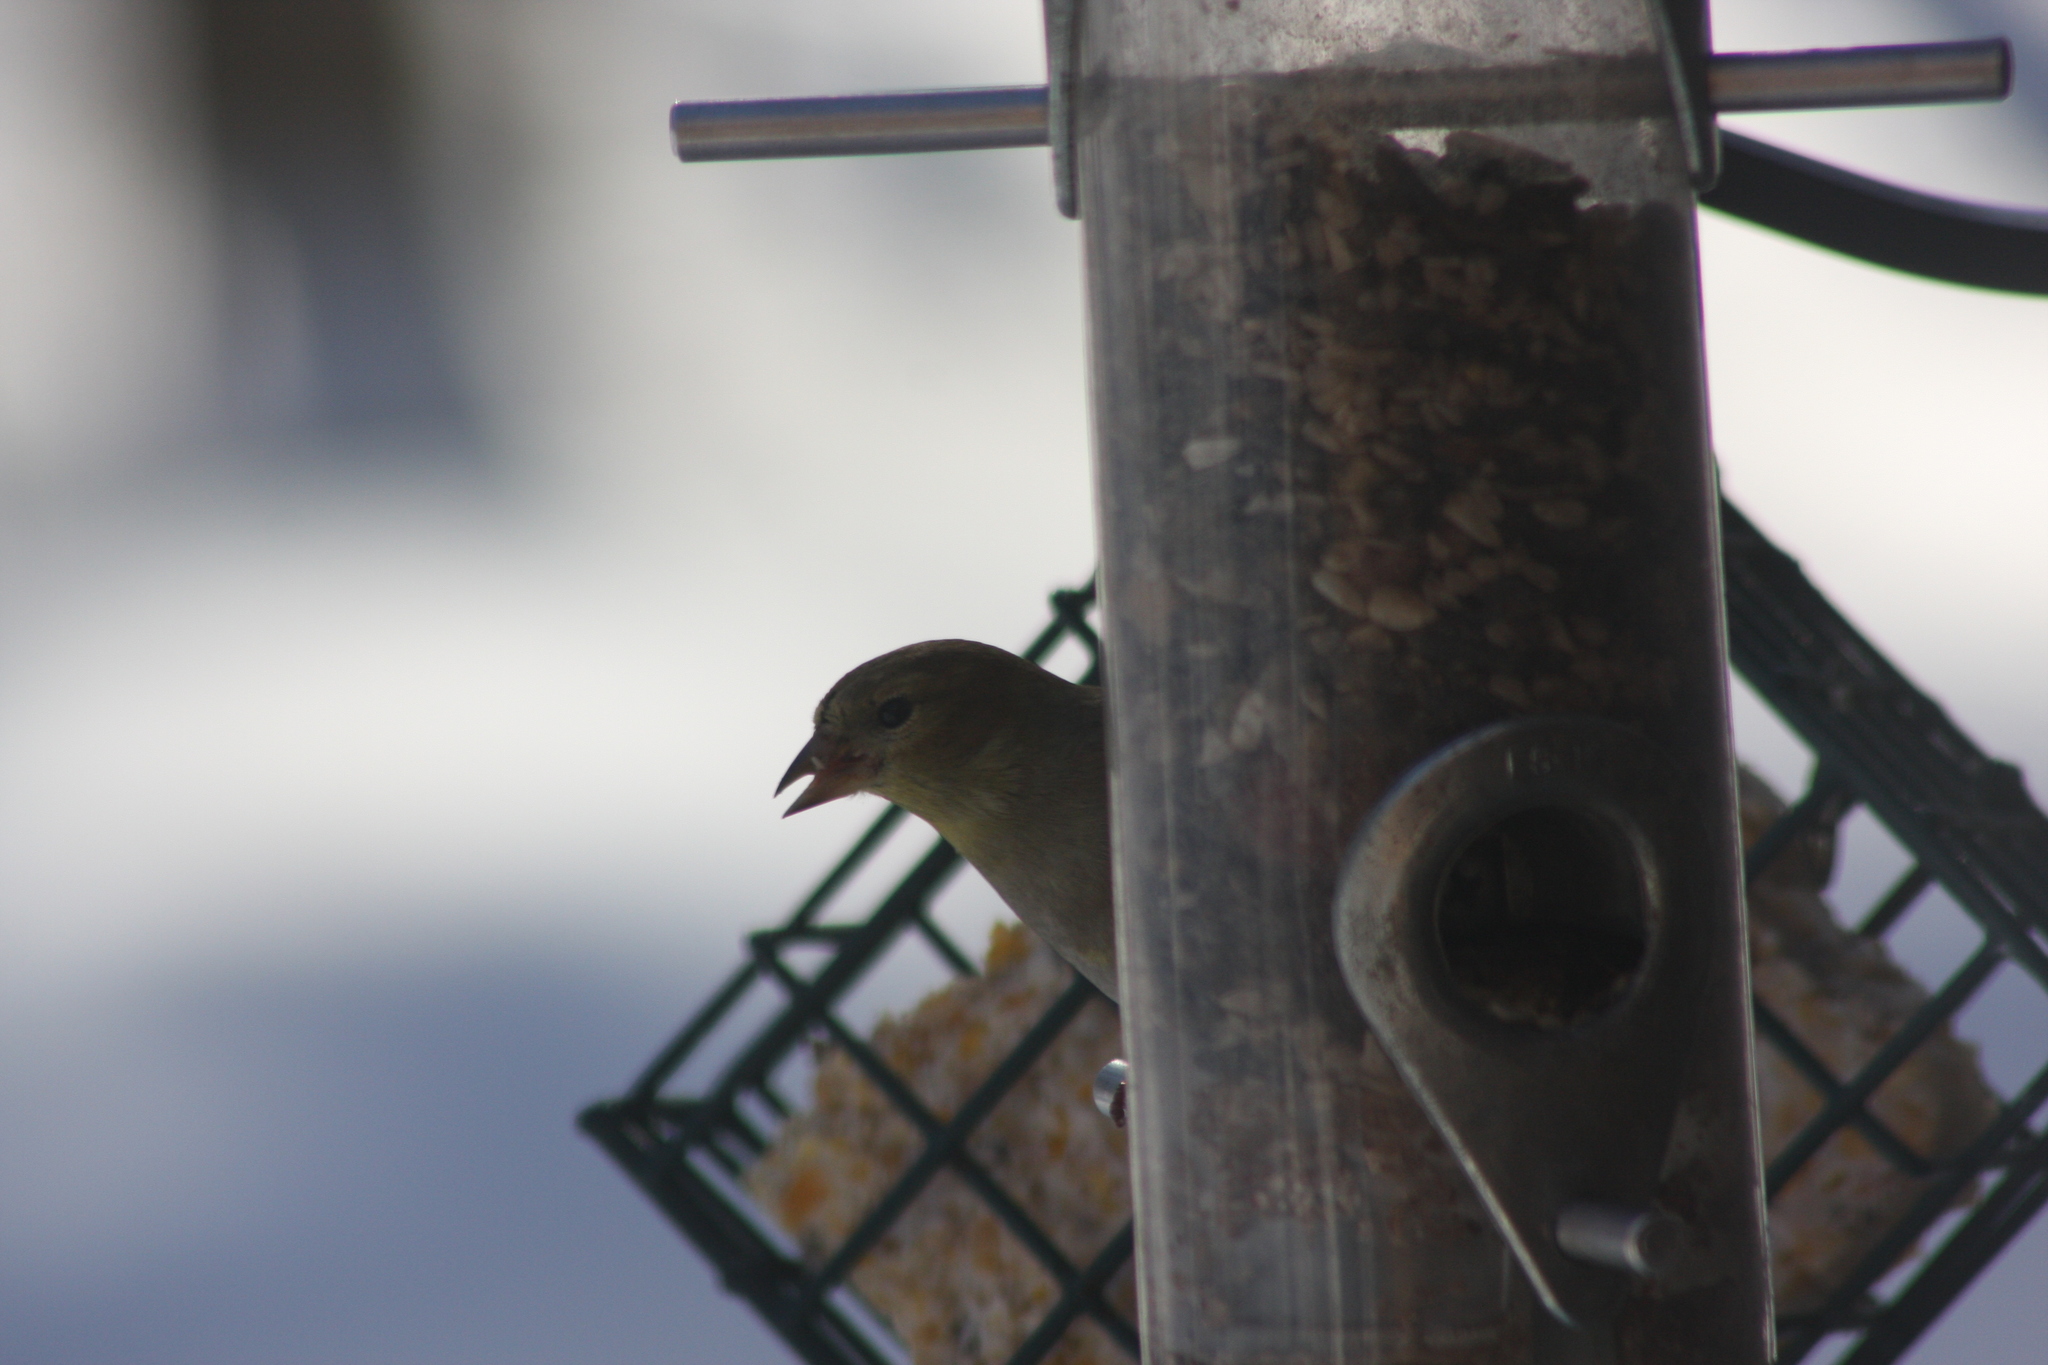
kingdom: Animalia
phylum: Chordata
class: Aves
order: Passeriformes
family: Fringillidae
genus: Spinus
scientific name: Spinus tristis
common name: American goldfinch
